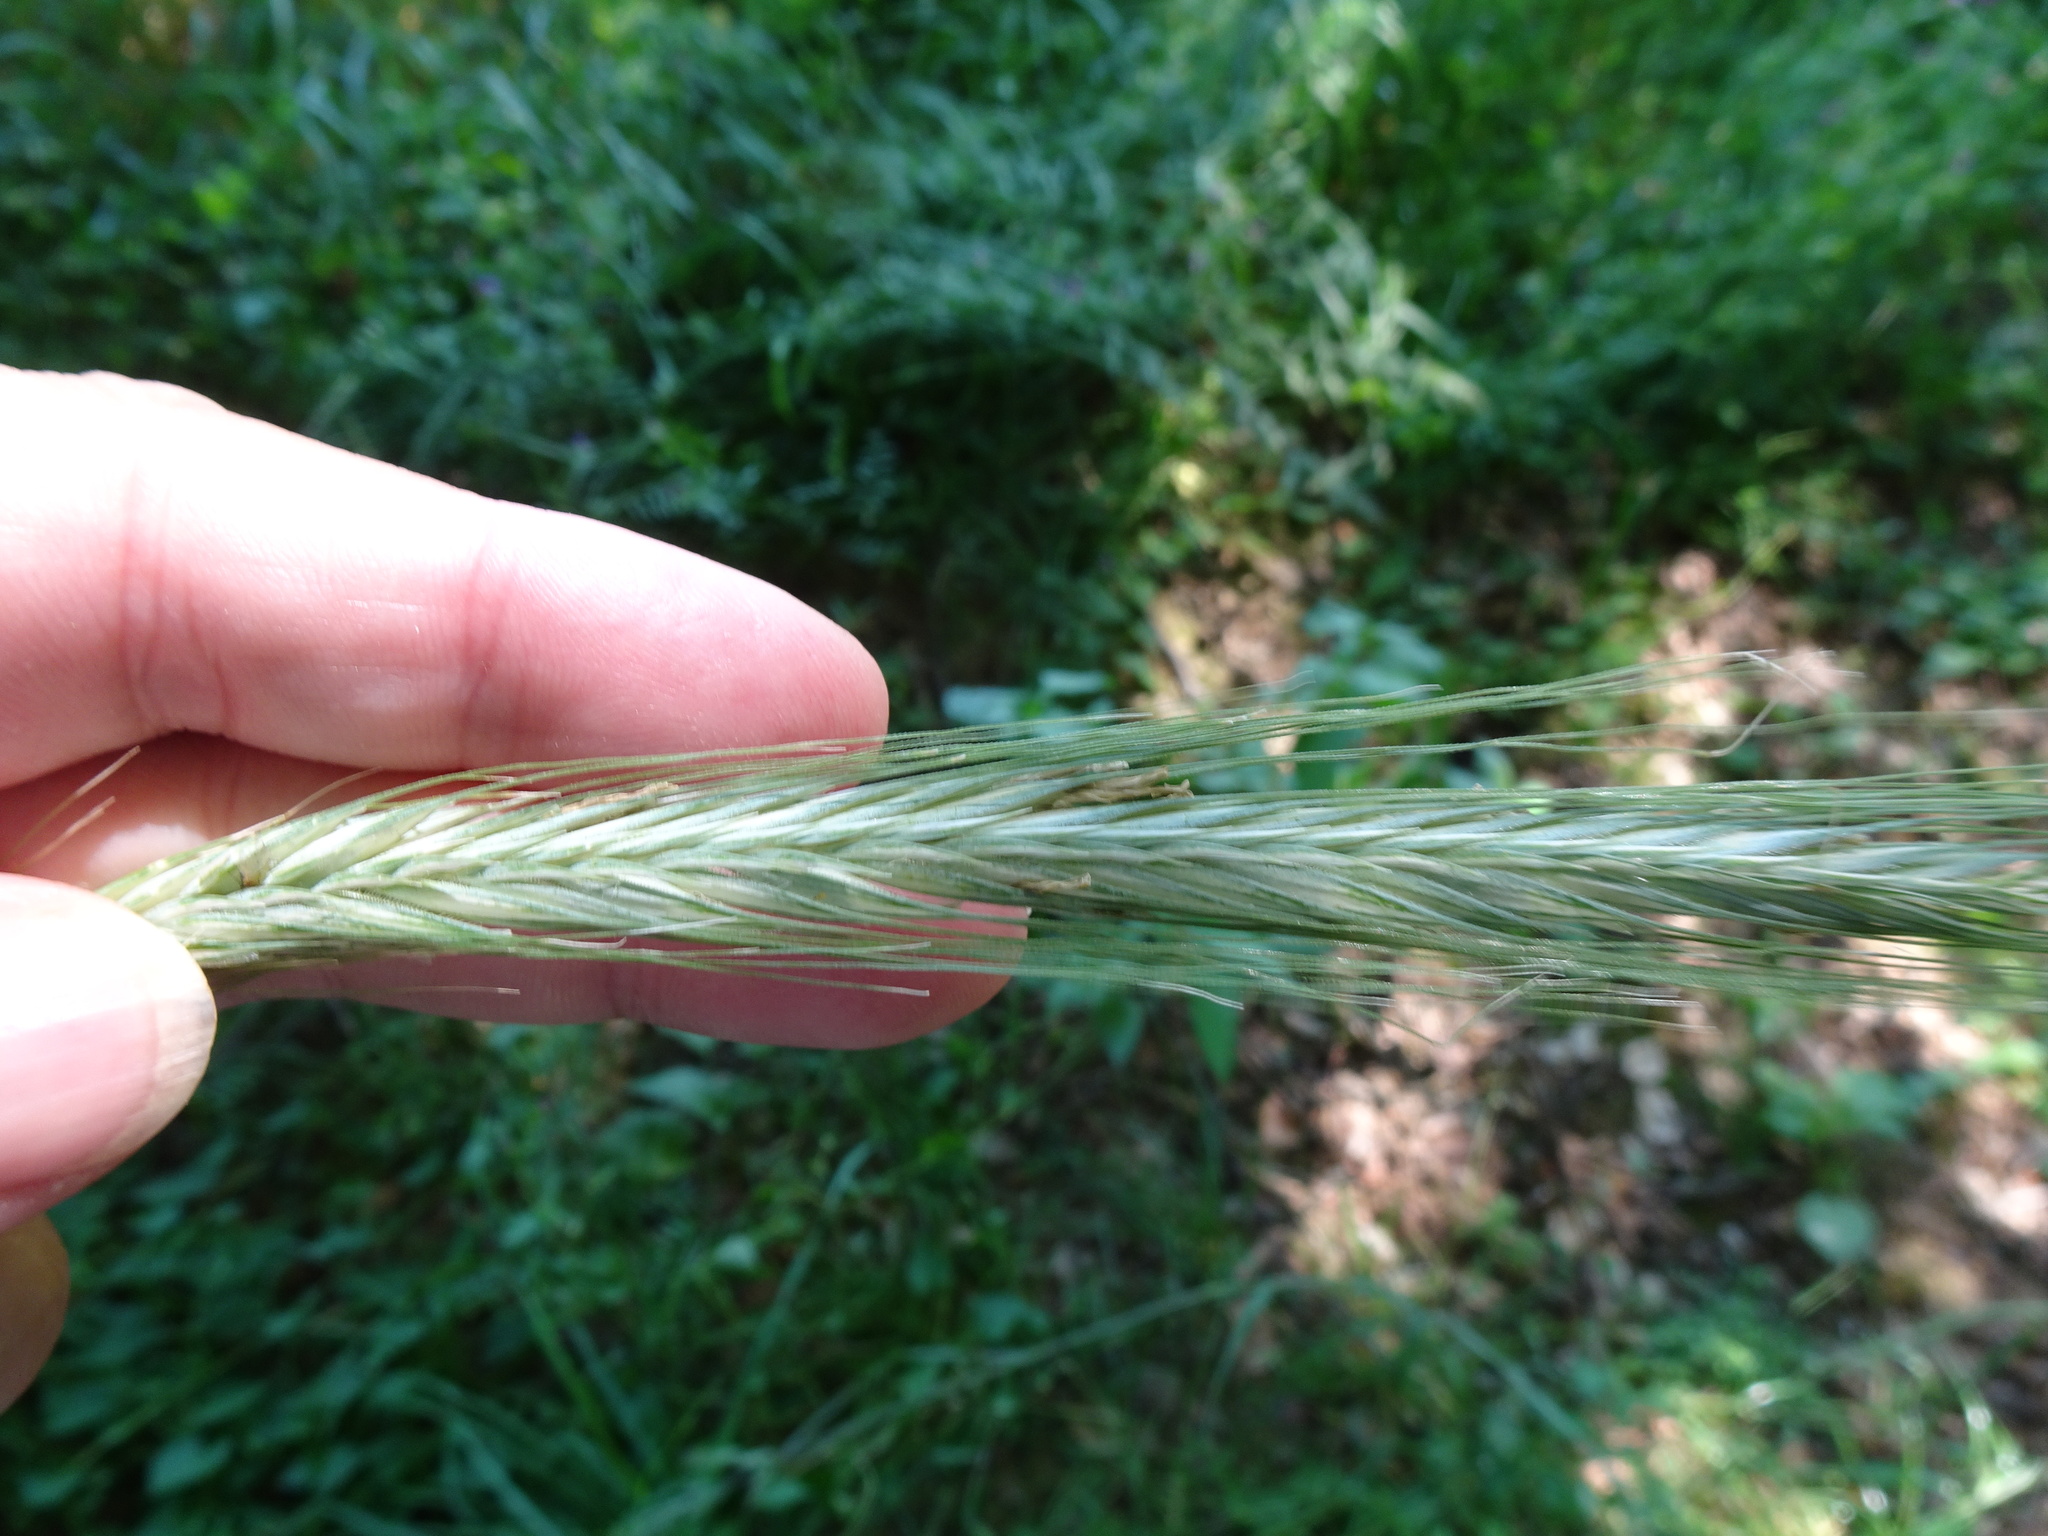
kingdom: Plantae
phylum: Tracheophyta
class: Liliopsida
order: Poales
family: Poaceae
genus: Secale
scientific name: Secale cereale
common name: Rye
